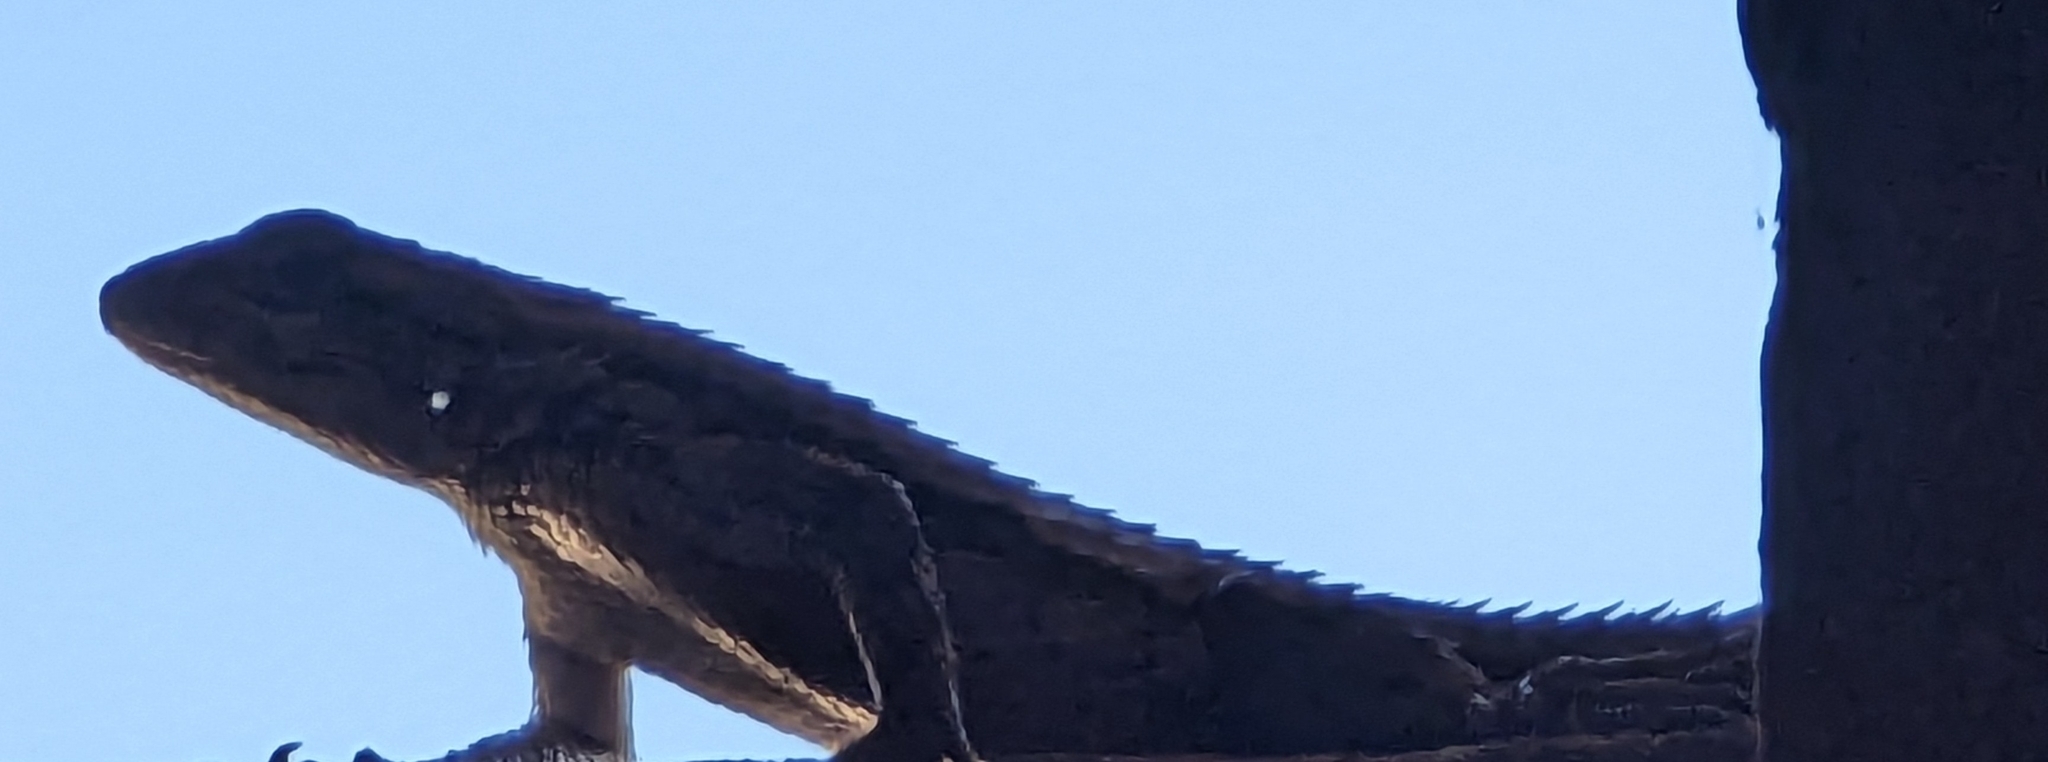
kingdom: Animalia
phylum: Chordata
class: Squamata
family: Phrynosomatidae
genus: Sceloporus
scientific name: Sceloporus olivaceus
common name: Texas spiny lizard
